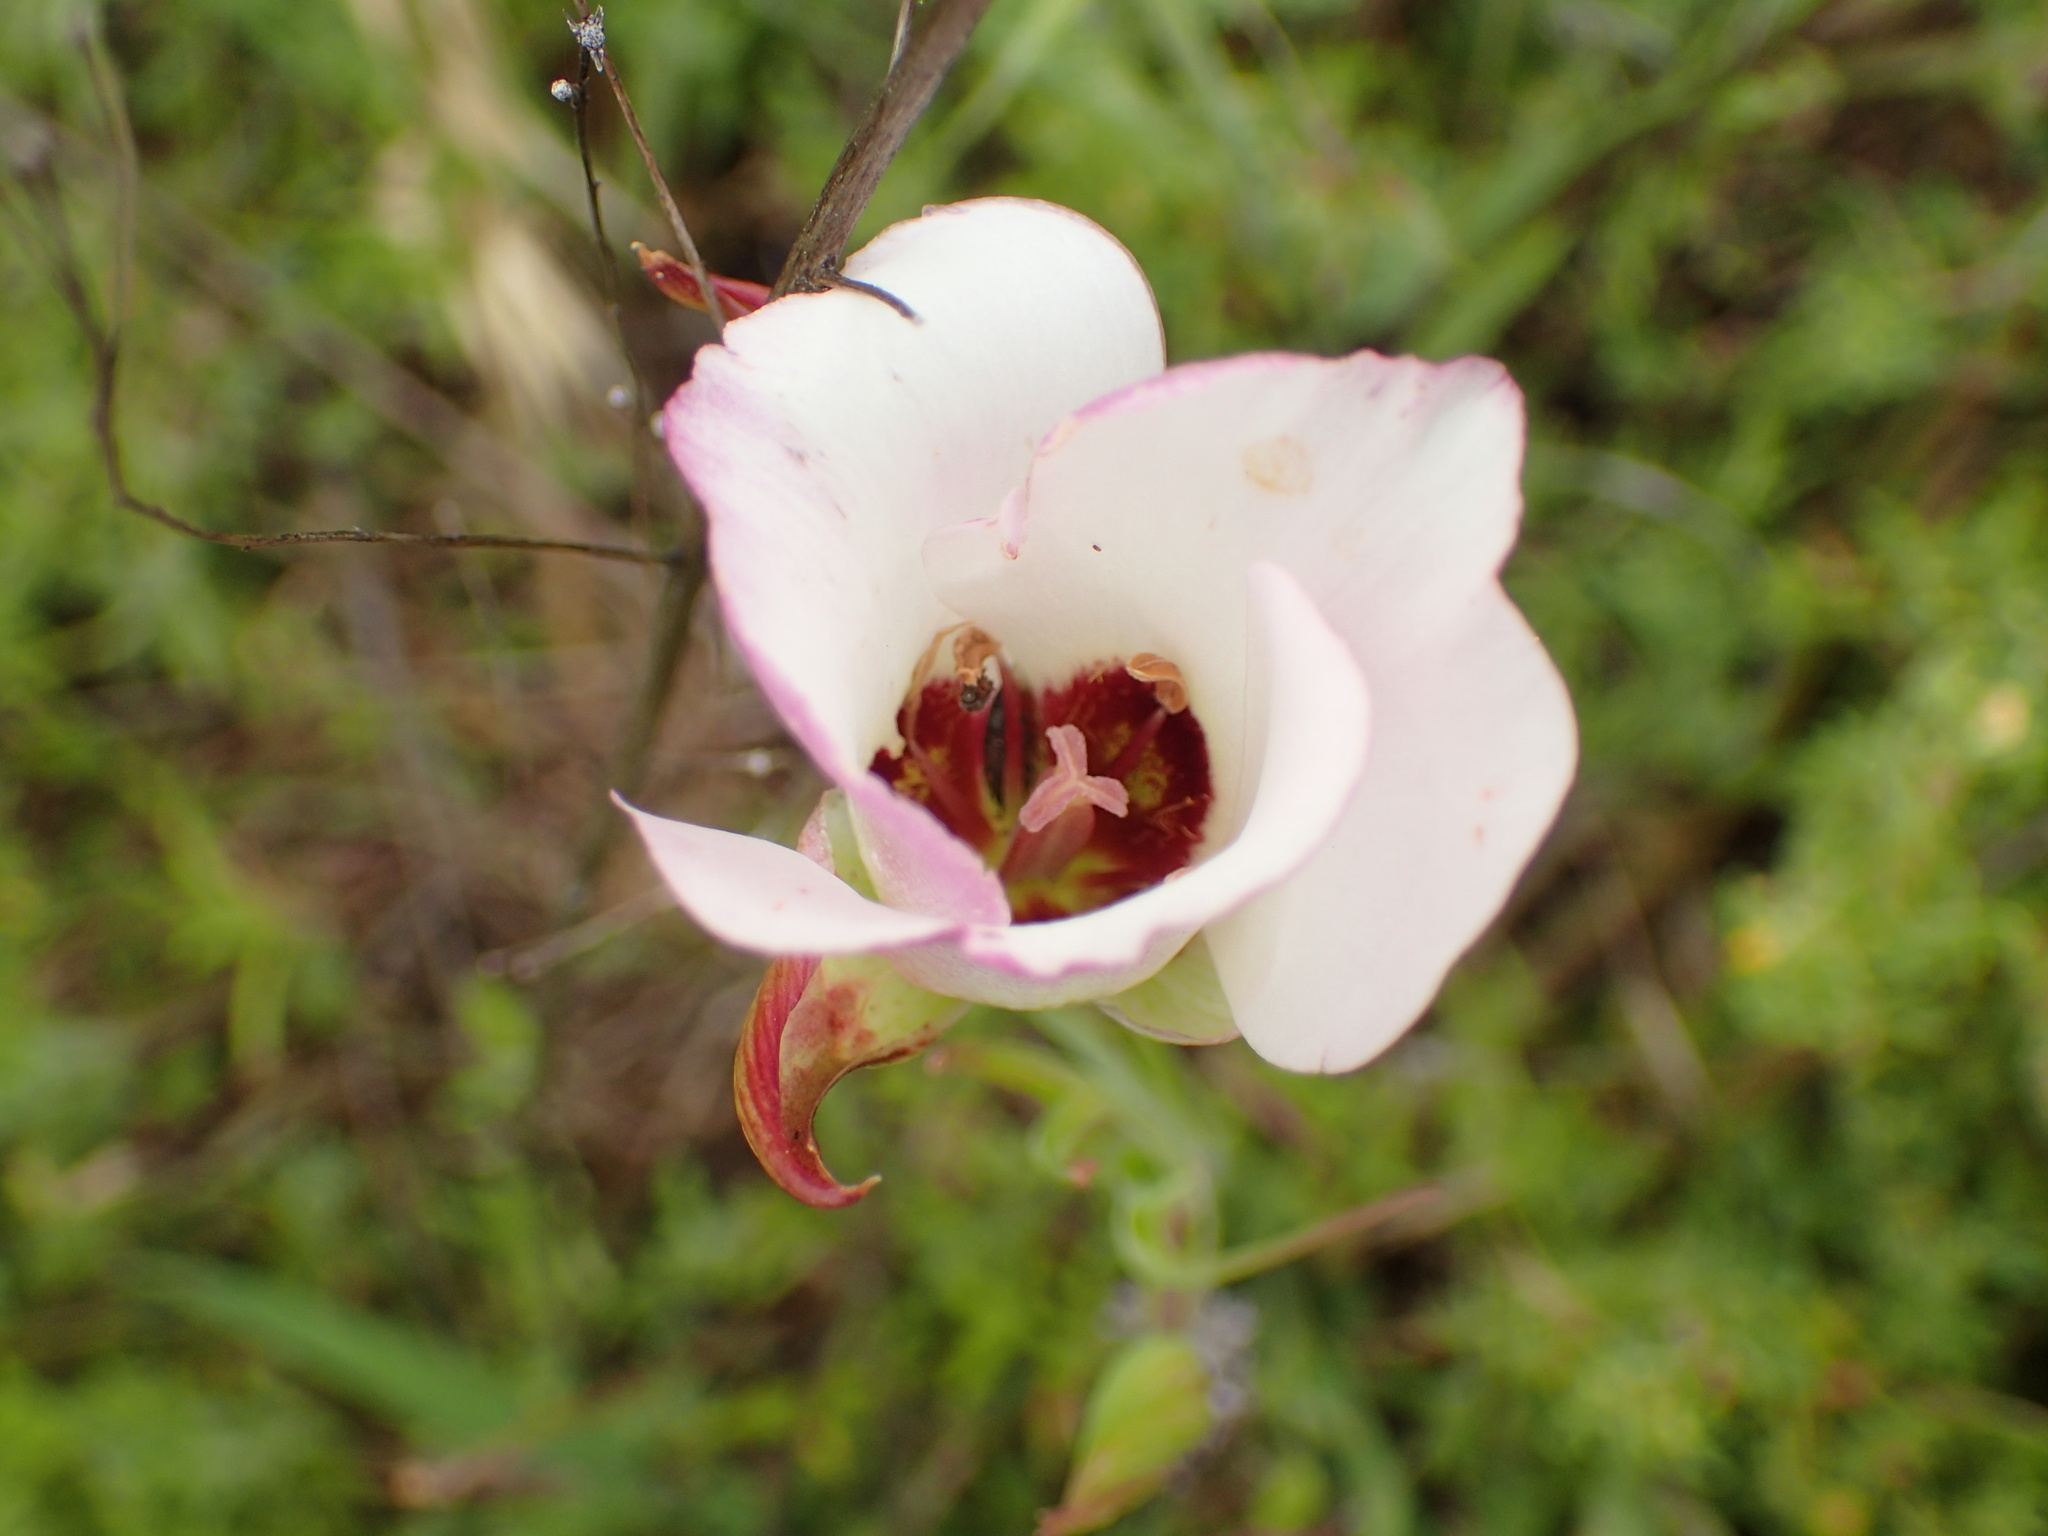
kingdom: Plantae
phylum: Tracheophyta
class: Liliopsida
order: Liliales
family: Liliaceae
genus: Calochortus
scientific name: Calochortus catalinae
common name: Catalina mariposa-lily
